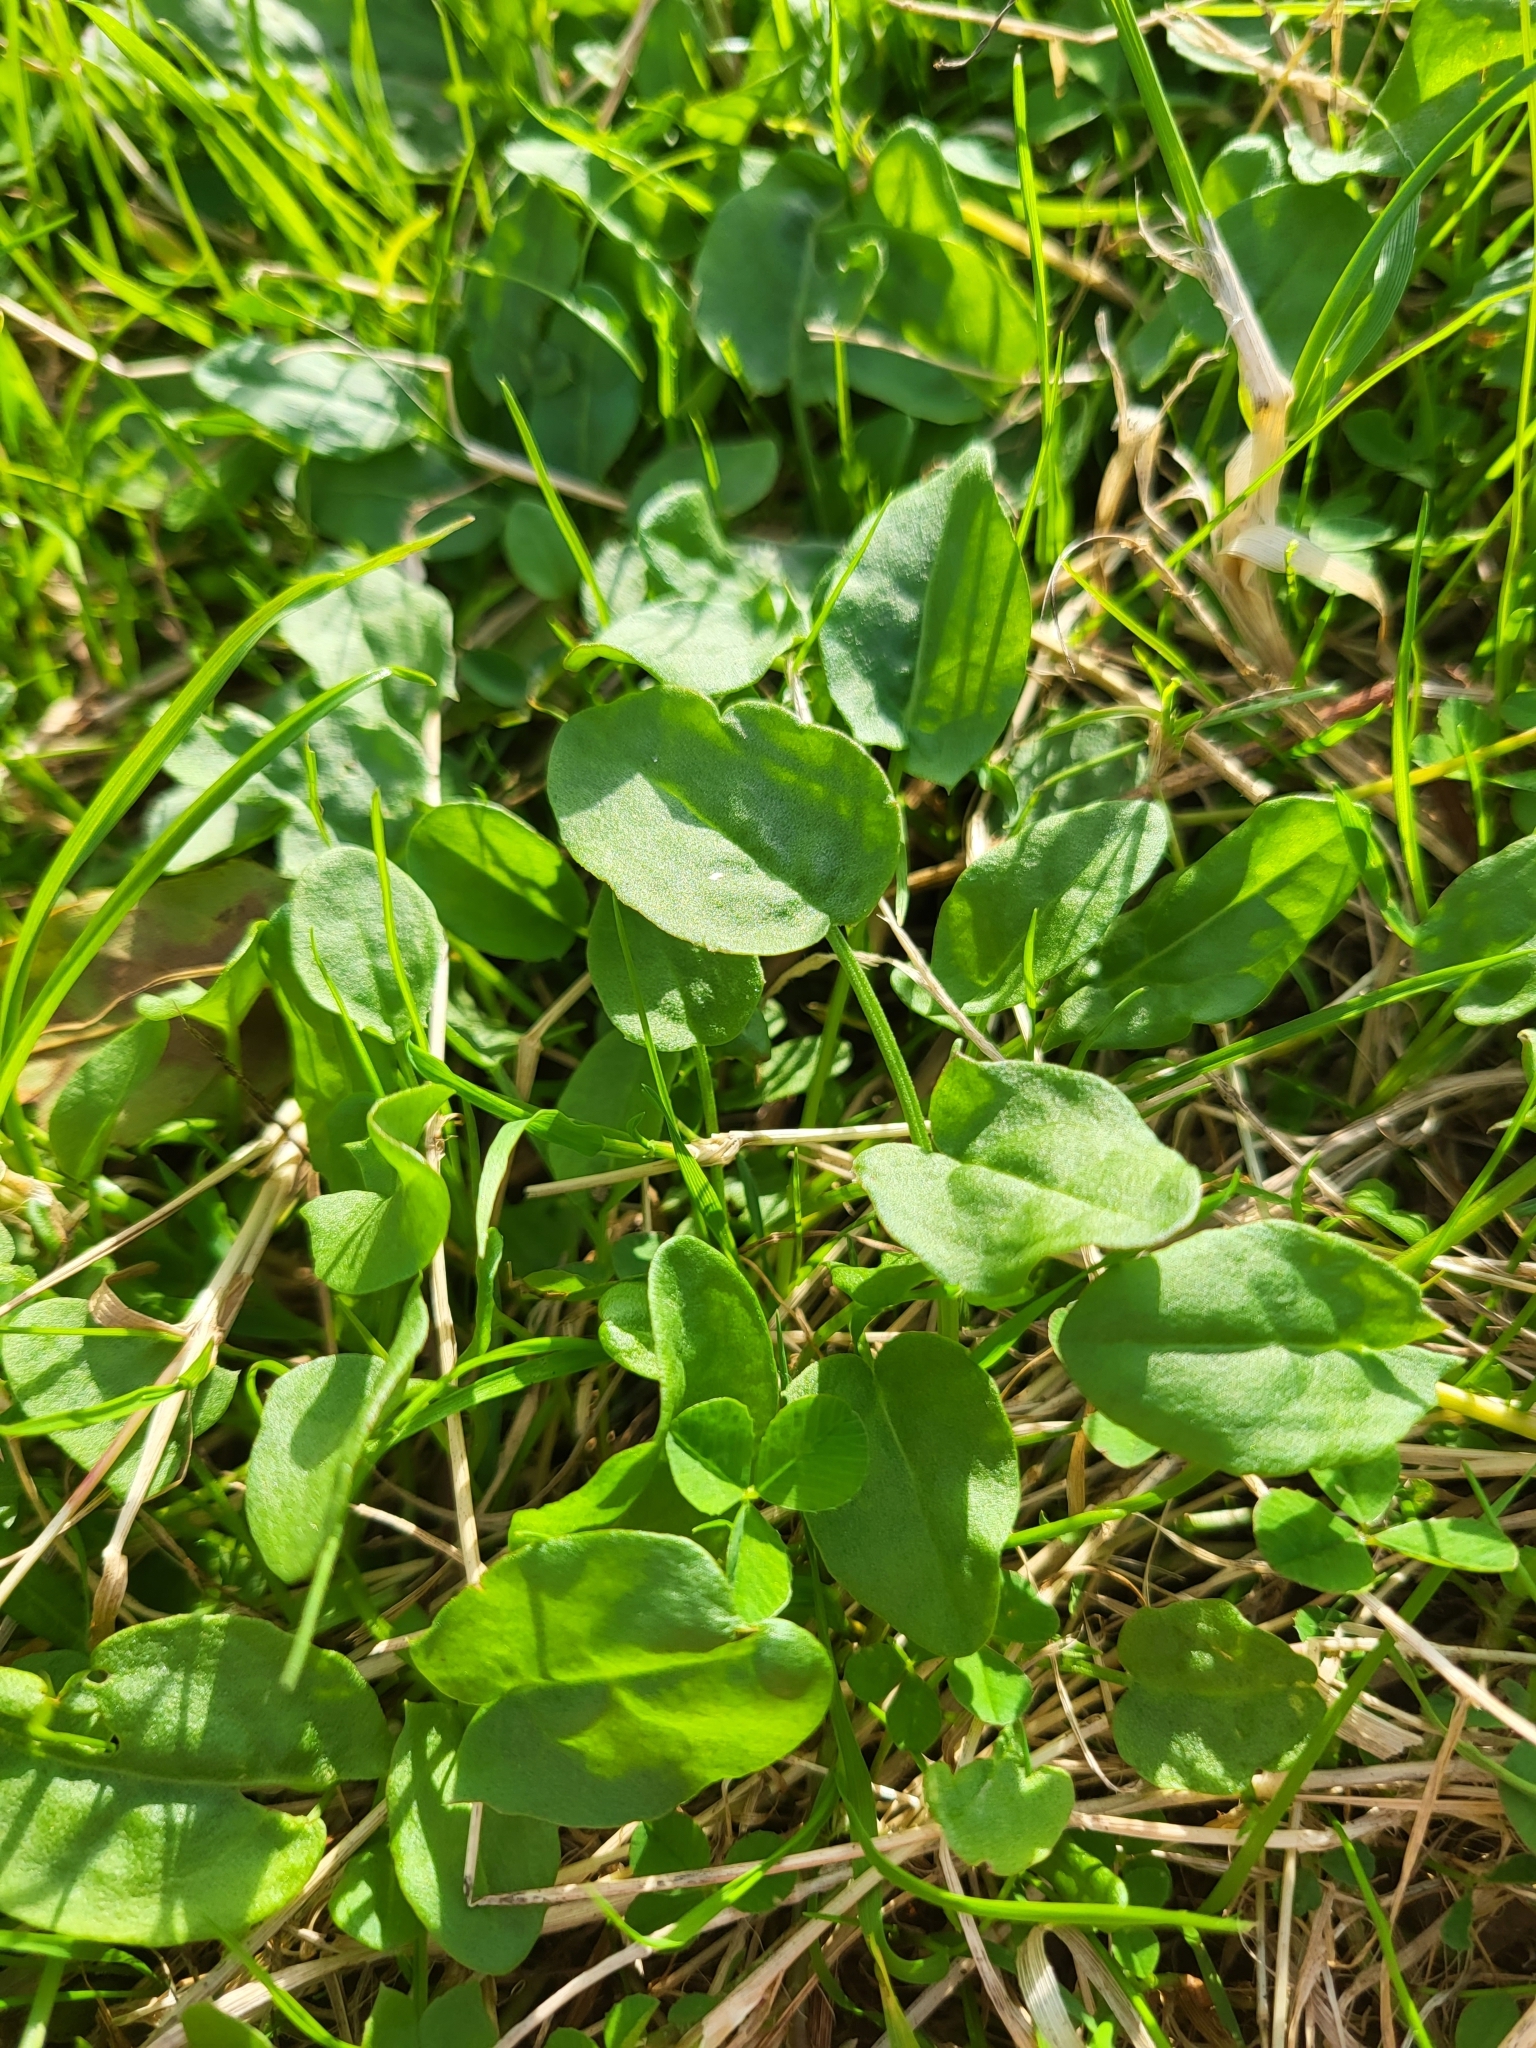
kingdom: Plantae
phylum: Tracheophyta
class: Magnoliopsida
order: Caryophyllales
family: Polygonaceae
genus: Rumex
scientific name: Rumex acetosa
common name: Garden sorrel
